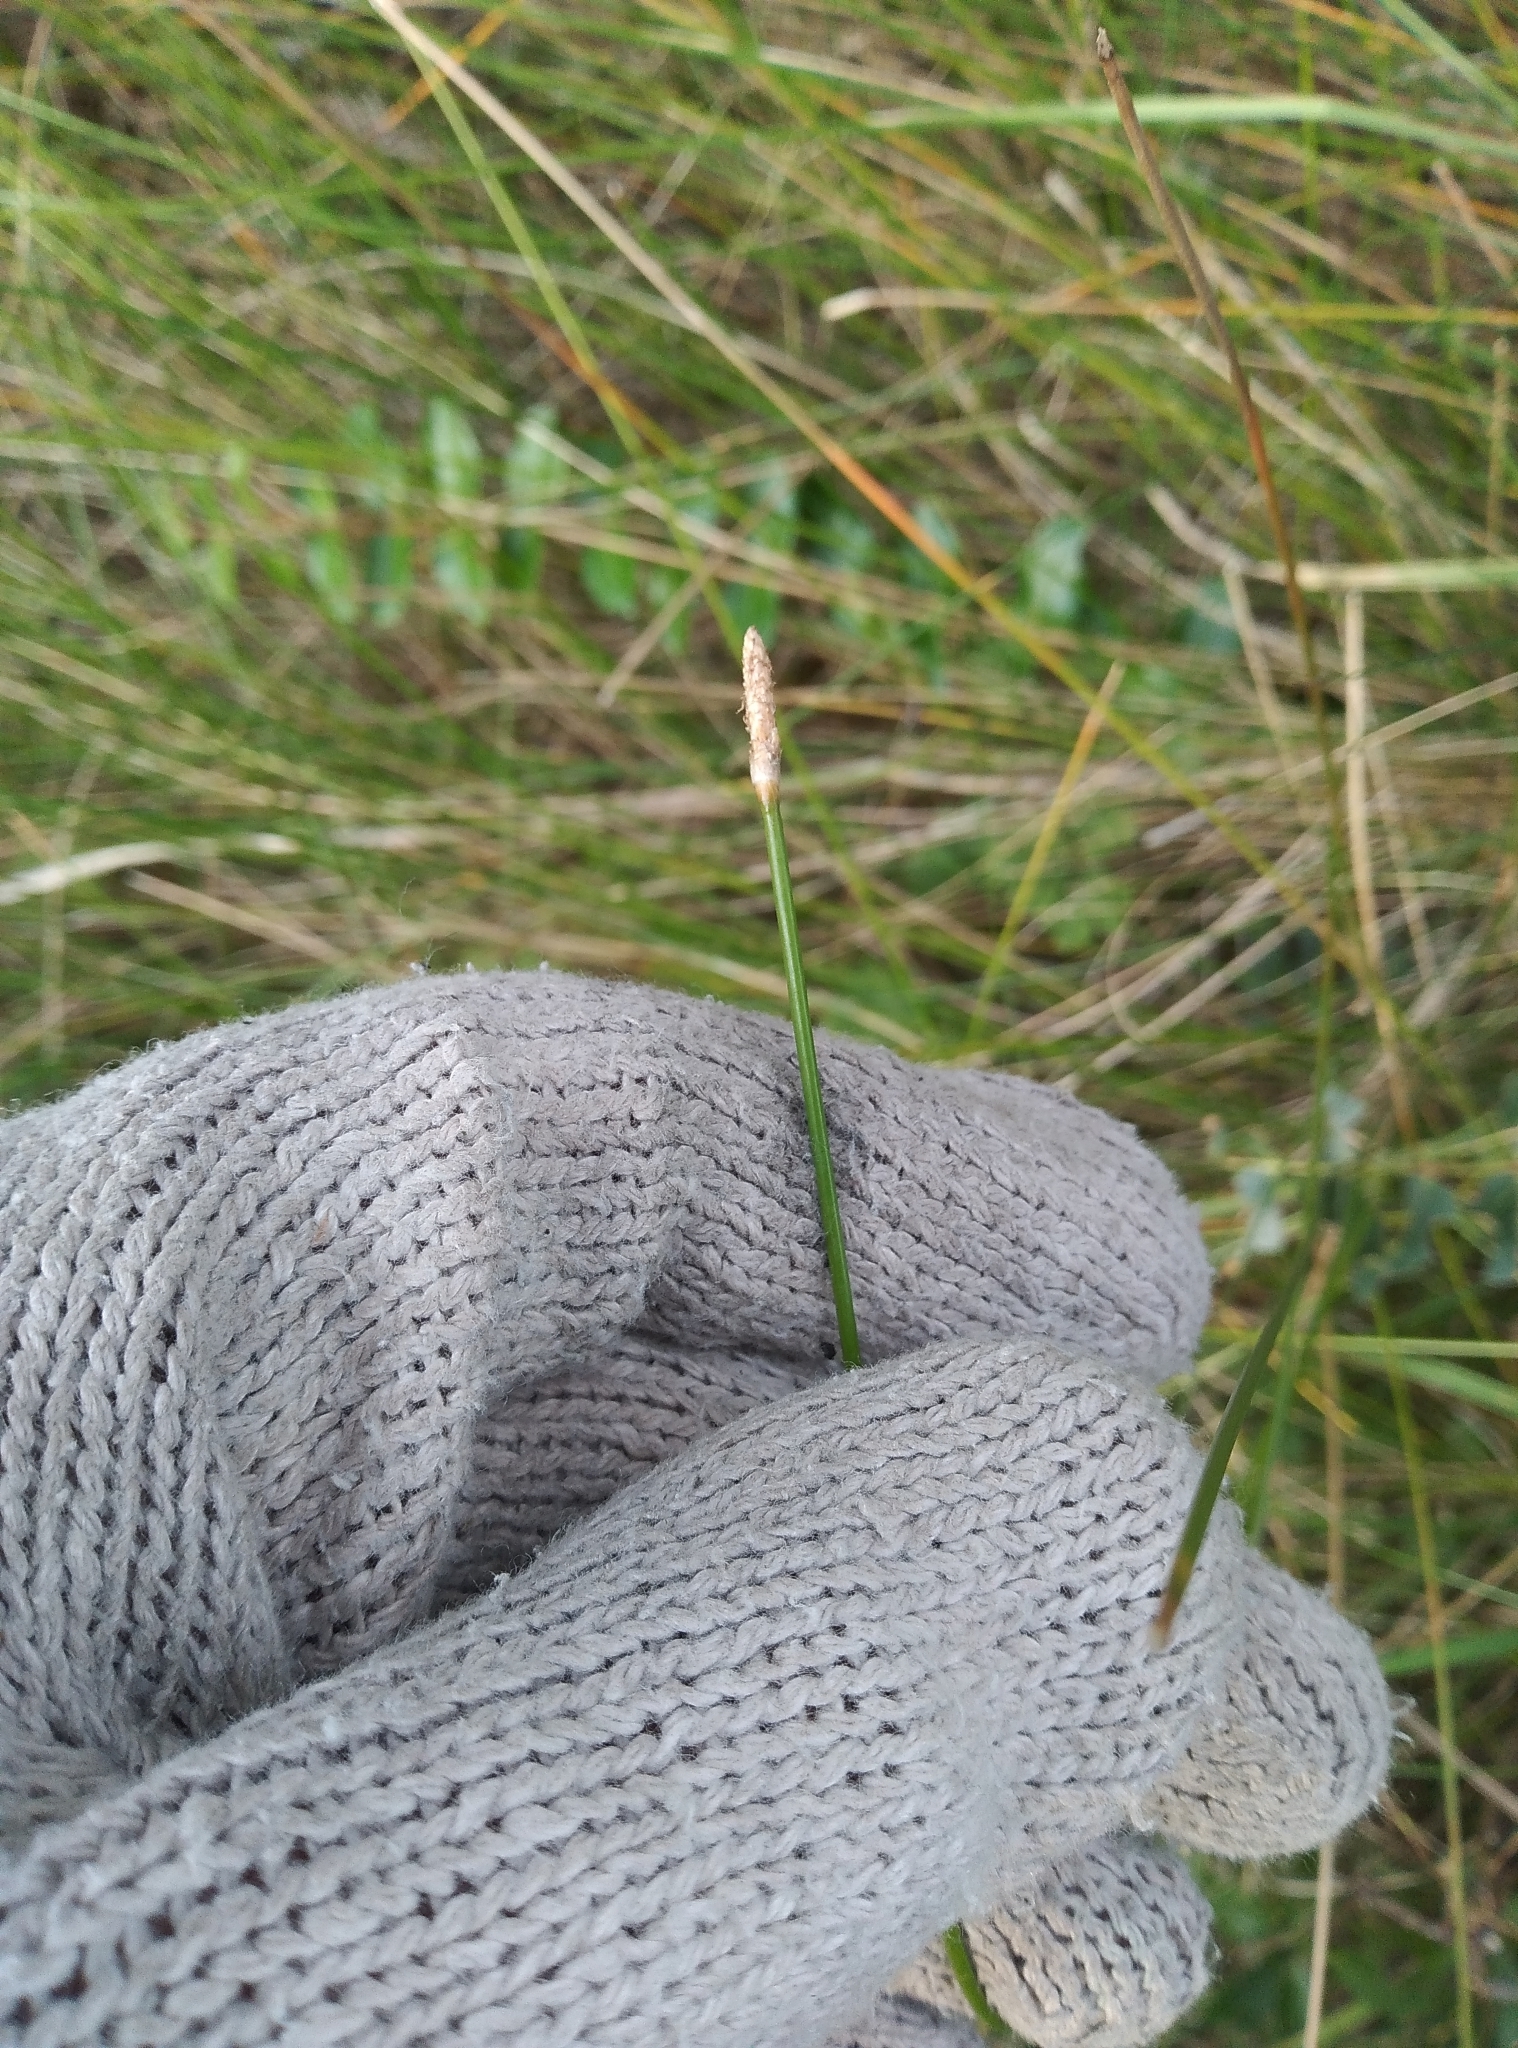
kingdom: Plantae
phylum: Tracheophyta
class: Liliopsida
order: Poales
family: Cyperaceae
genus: Eleocharis
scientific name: Eleocharis acuta
